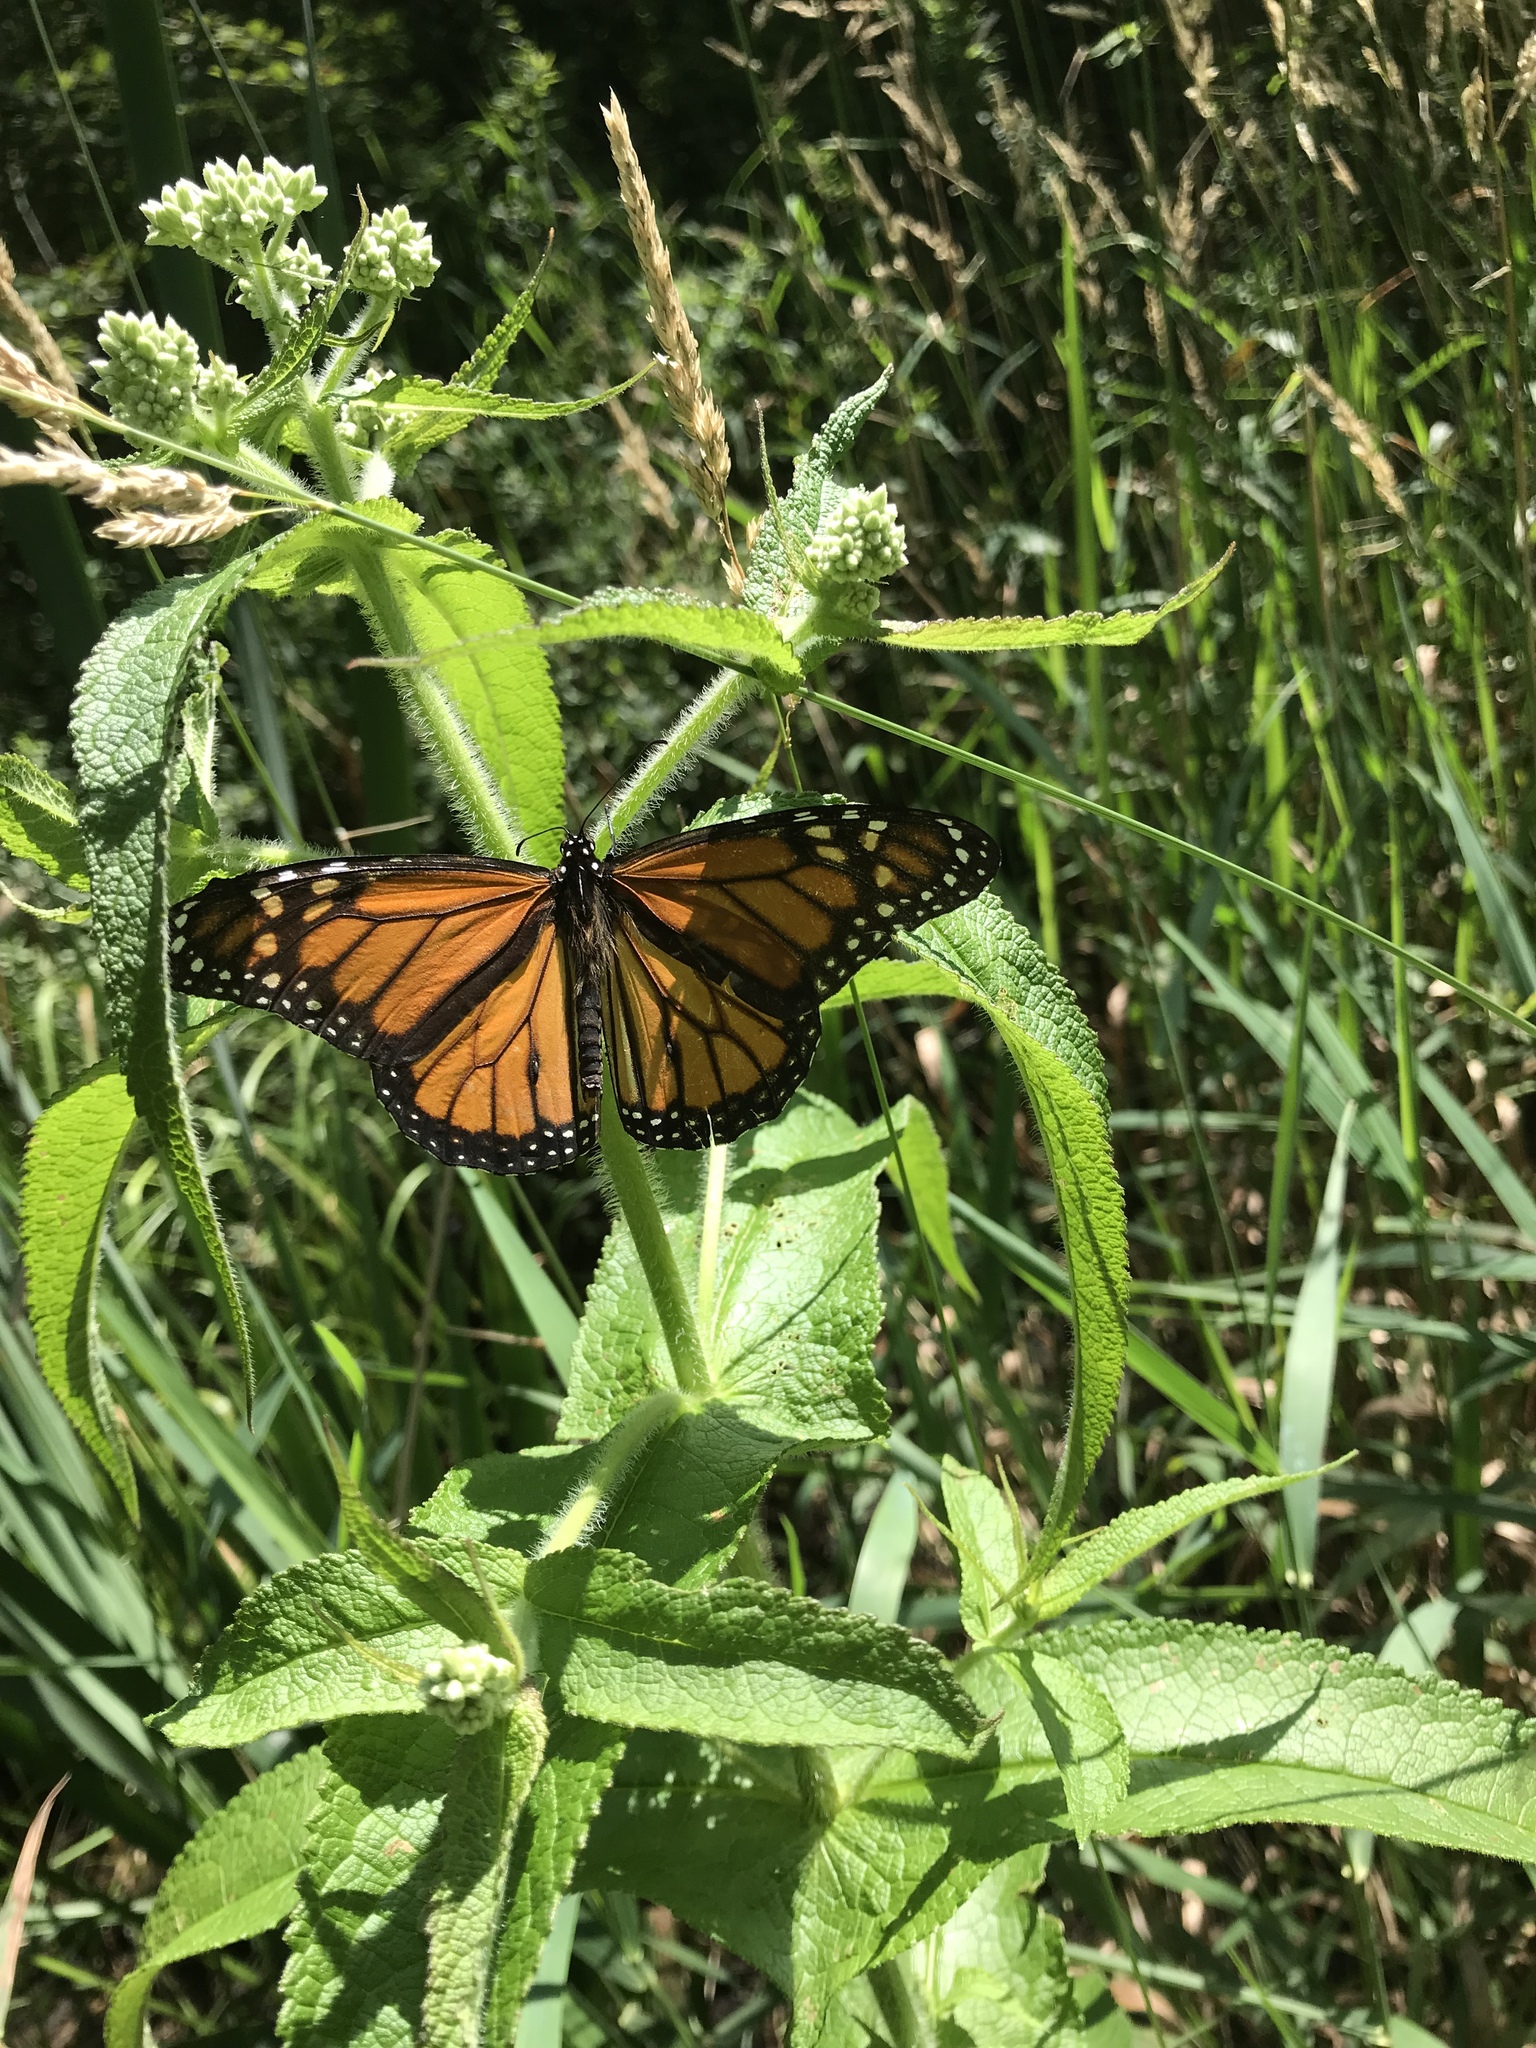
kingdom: Animalia
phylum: Arthropoda
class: Insecta
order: Lepidoptera
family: Nymphalidae
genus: Danaus
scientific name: Danaus plexippus
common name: Monarch
